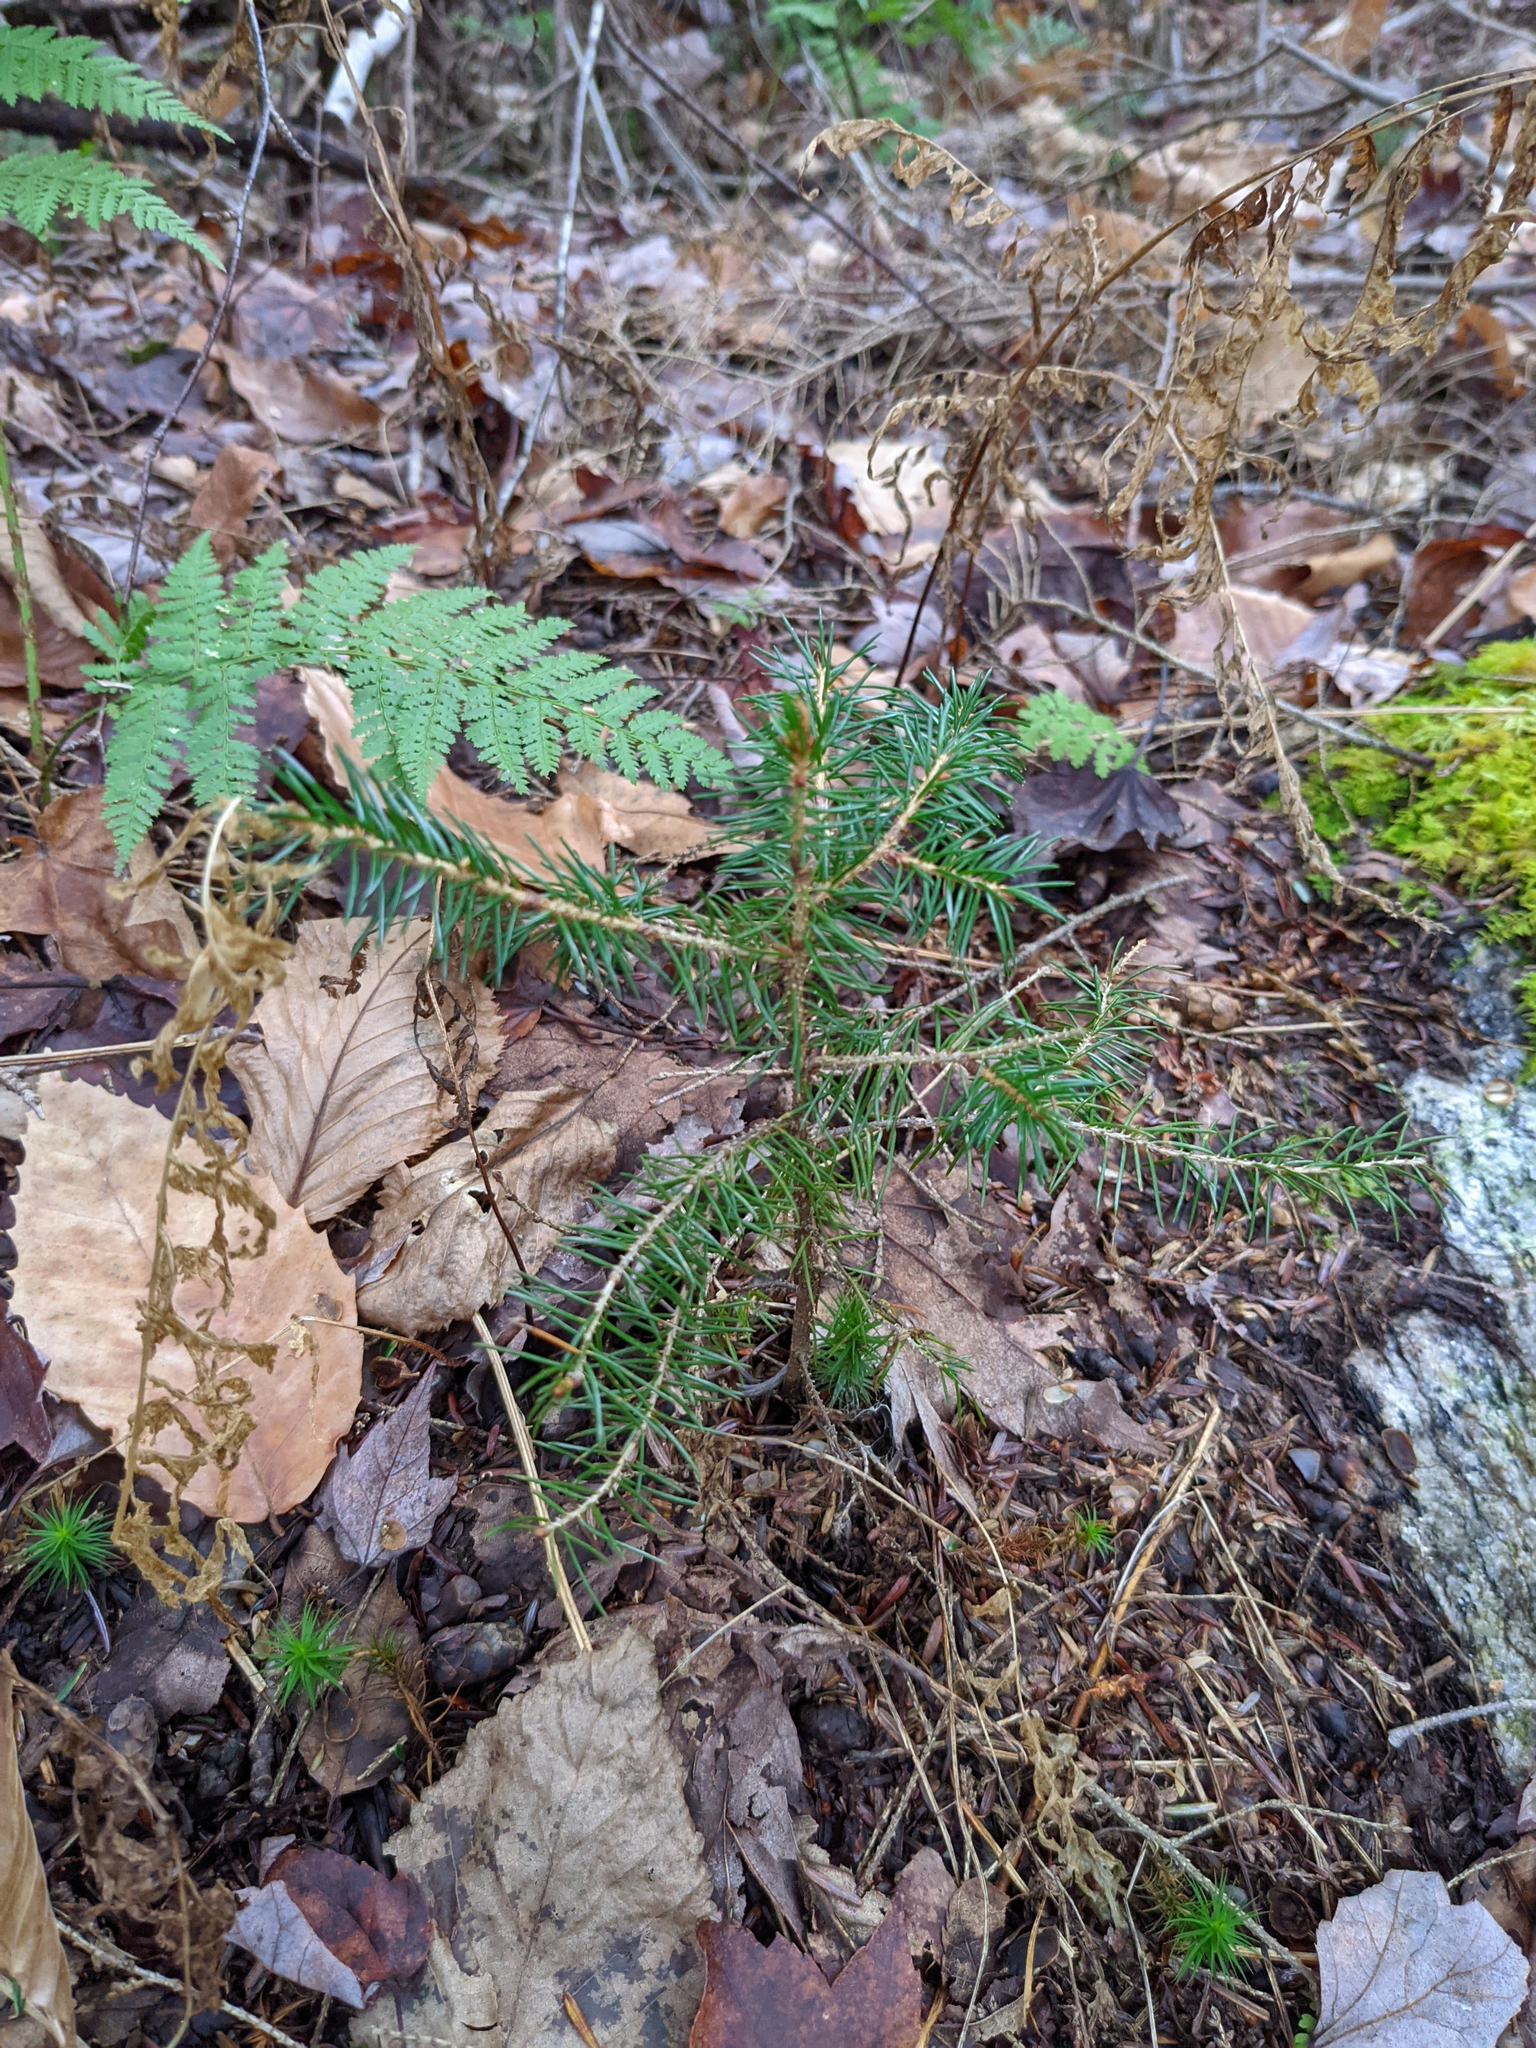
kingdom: Plantae
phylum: Tracheophyta
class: Pinopsida
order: Pinales
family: Pinaceae
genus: Picea
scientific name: Picea rubens
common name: Red spruce
